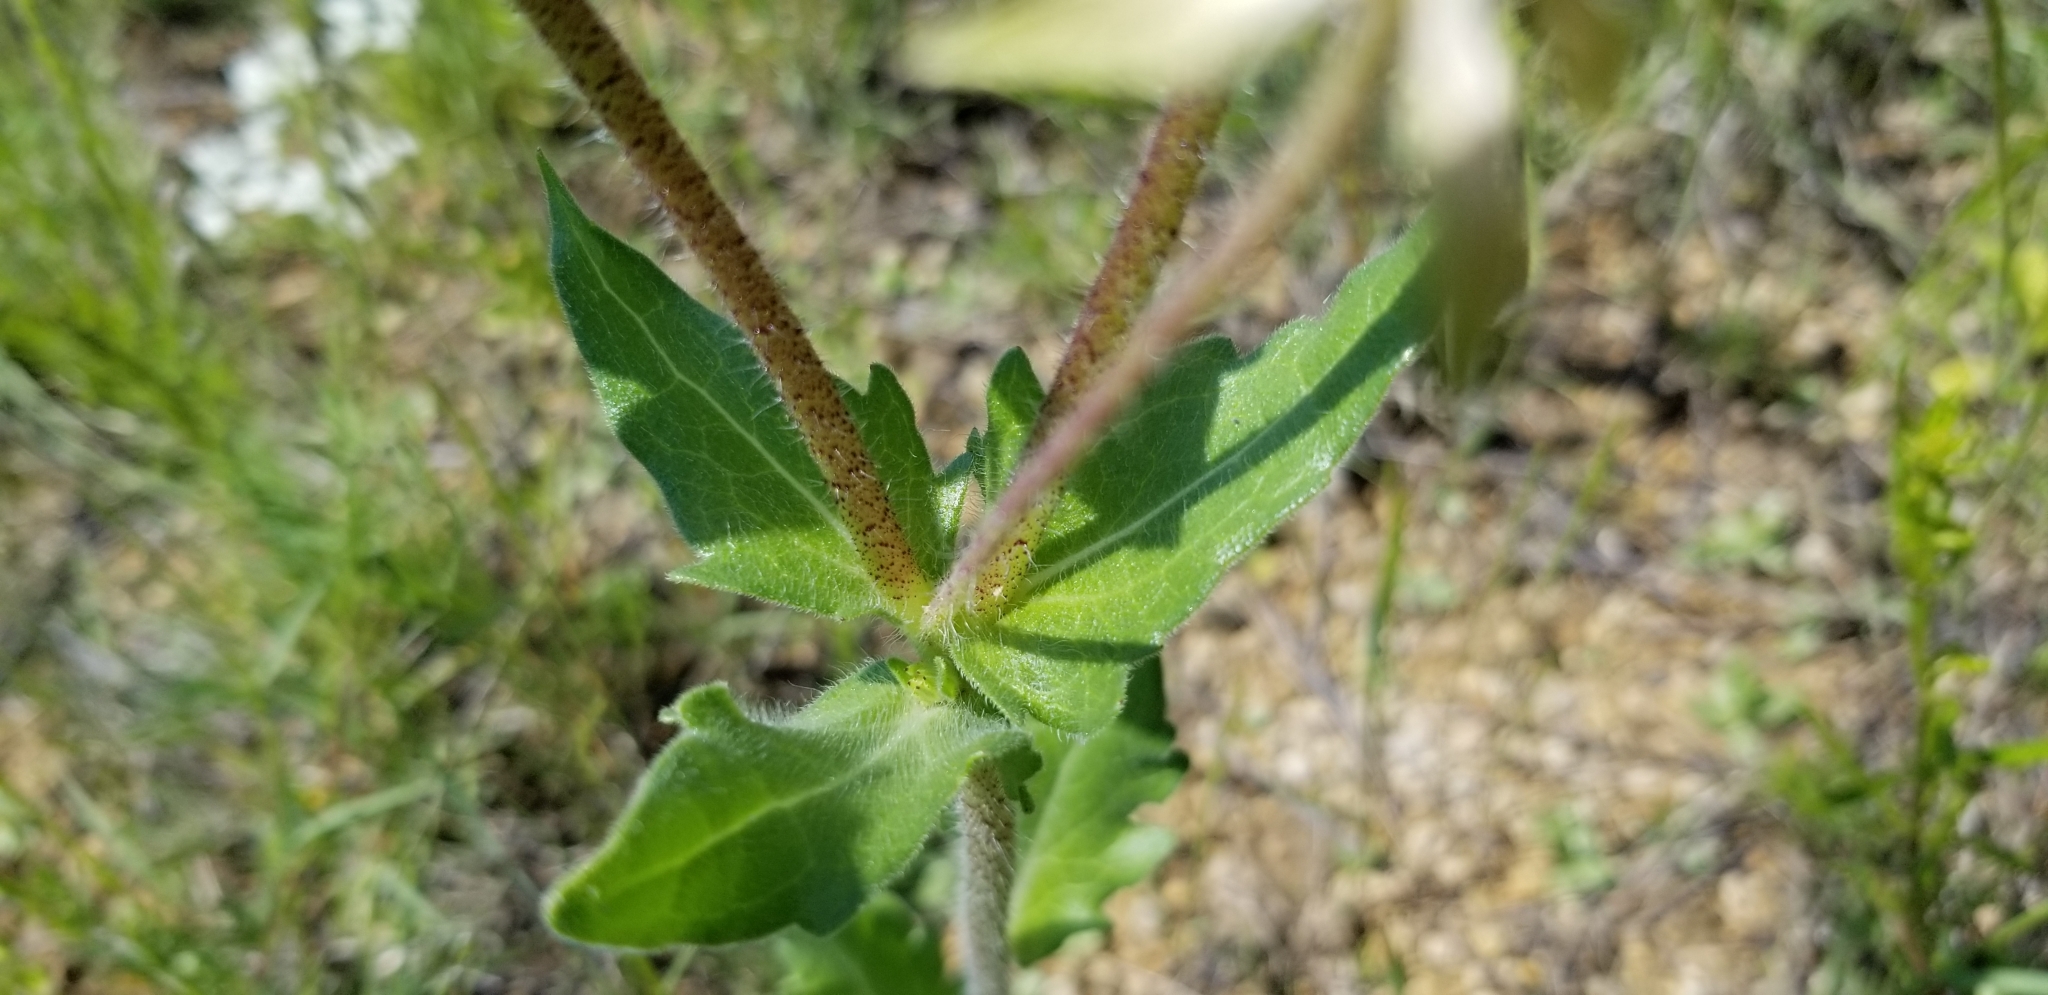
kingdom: Plantae
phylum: Tracheophyta
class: Magnoliopsida
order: Asterales
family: Asteraceae
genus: Lindheimera
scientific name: Lindheimera texana
